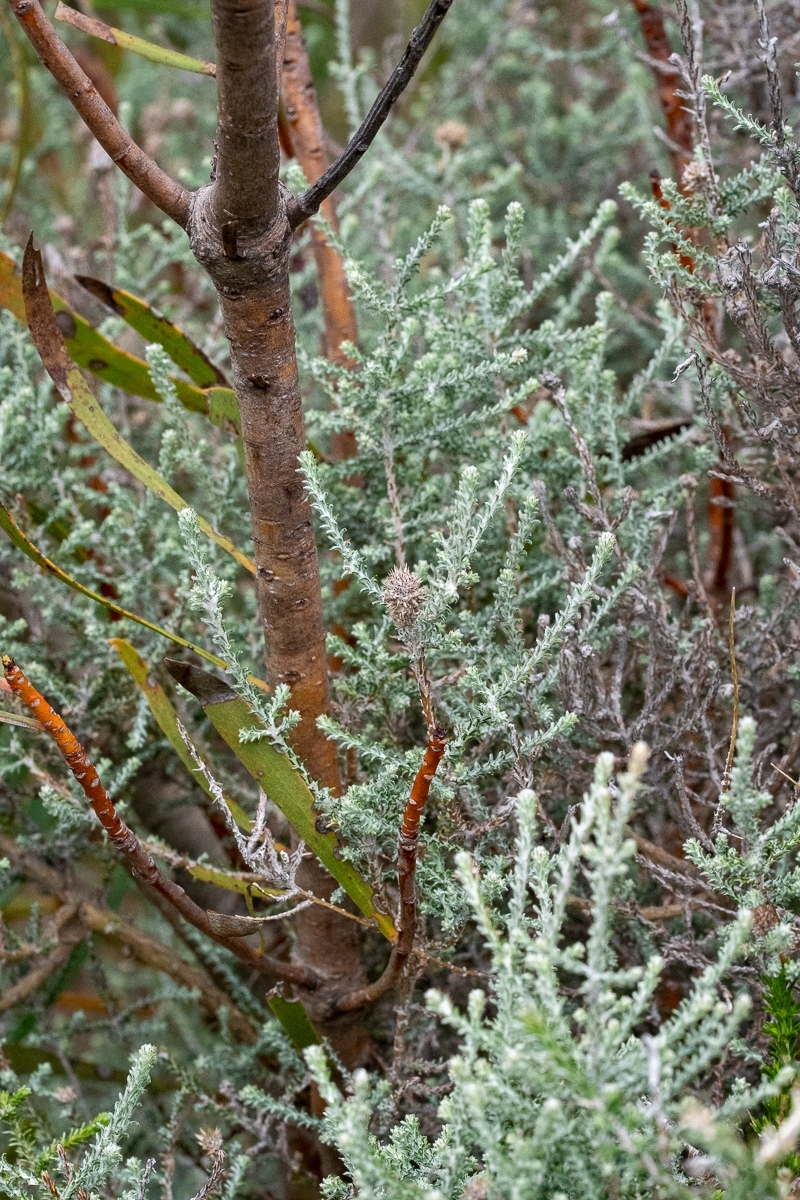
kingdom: Plantae
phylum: Tracheophyta
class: Magnoliopsida
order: Asterales
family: Asteraceae
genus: Seriphium
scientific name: Seriphium plumosum
